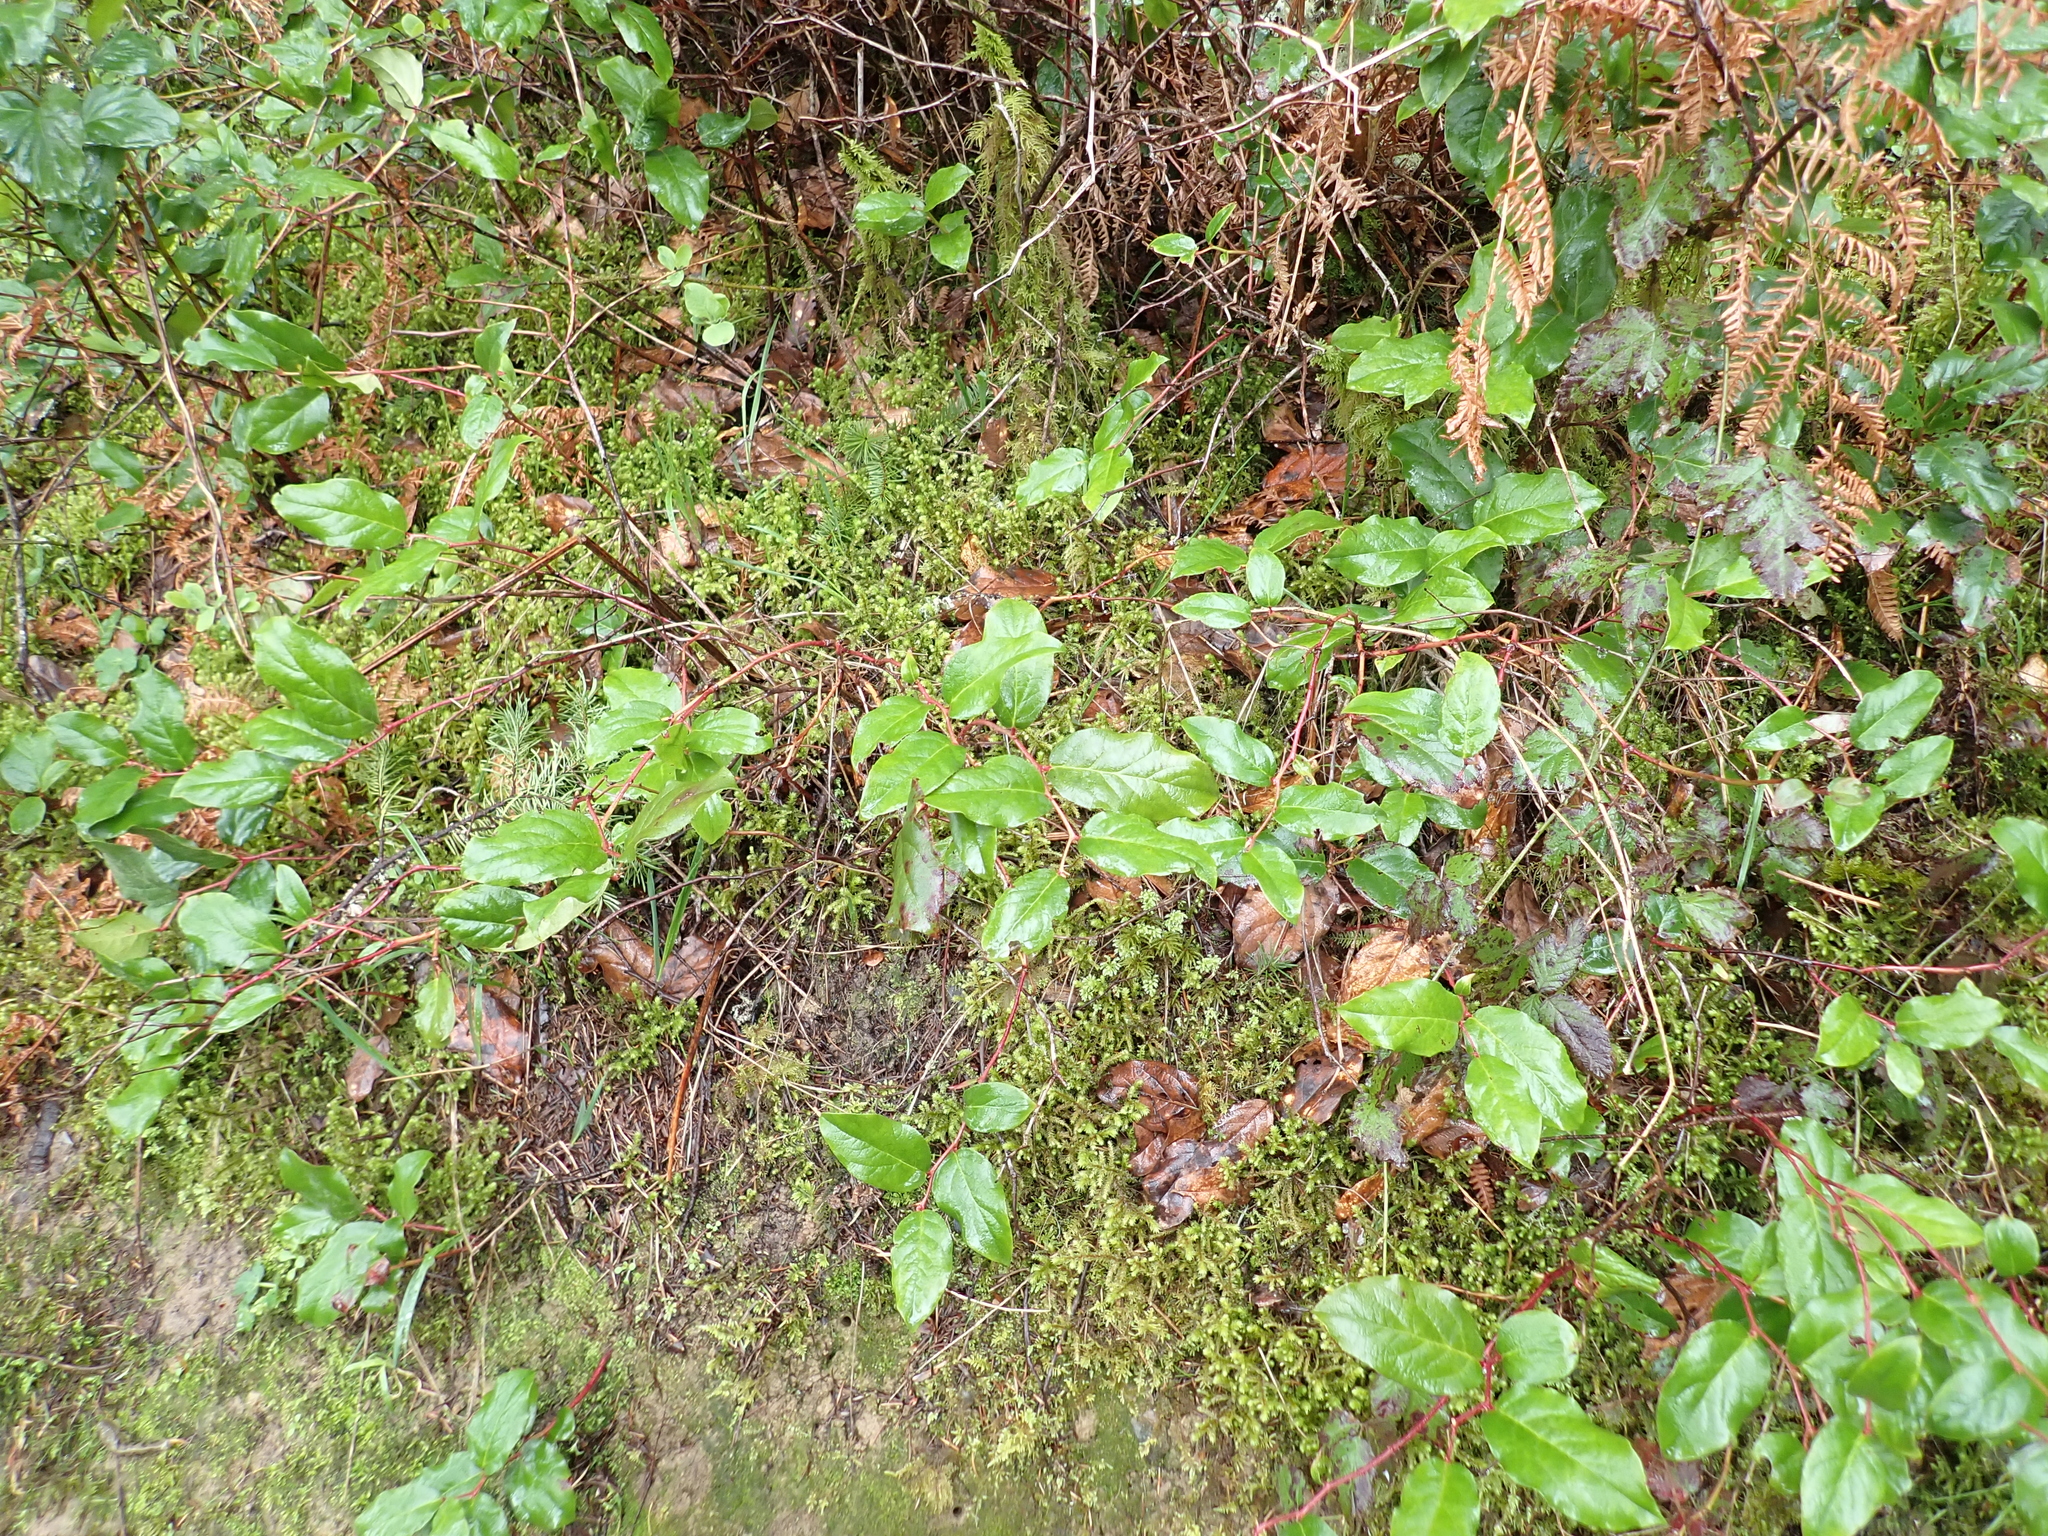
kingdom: Plantae
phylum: Tracheophyta
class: Magnoliopsida
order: Ericales
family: Ericaceae
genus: Gaultheria
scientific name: Gaultheria shallon
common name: Shallon
